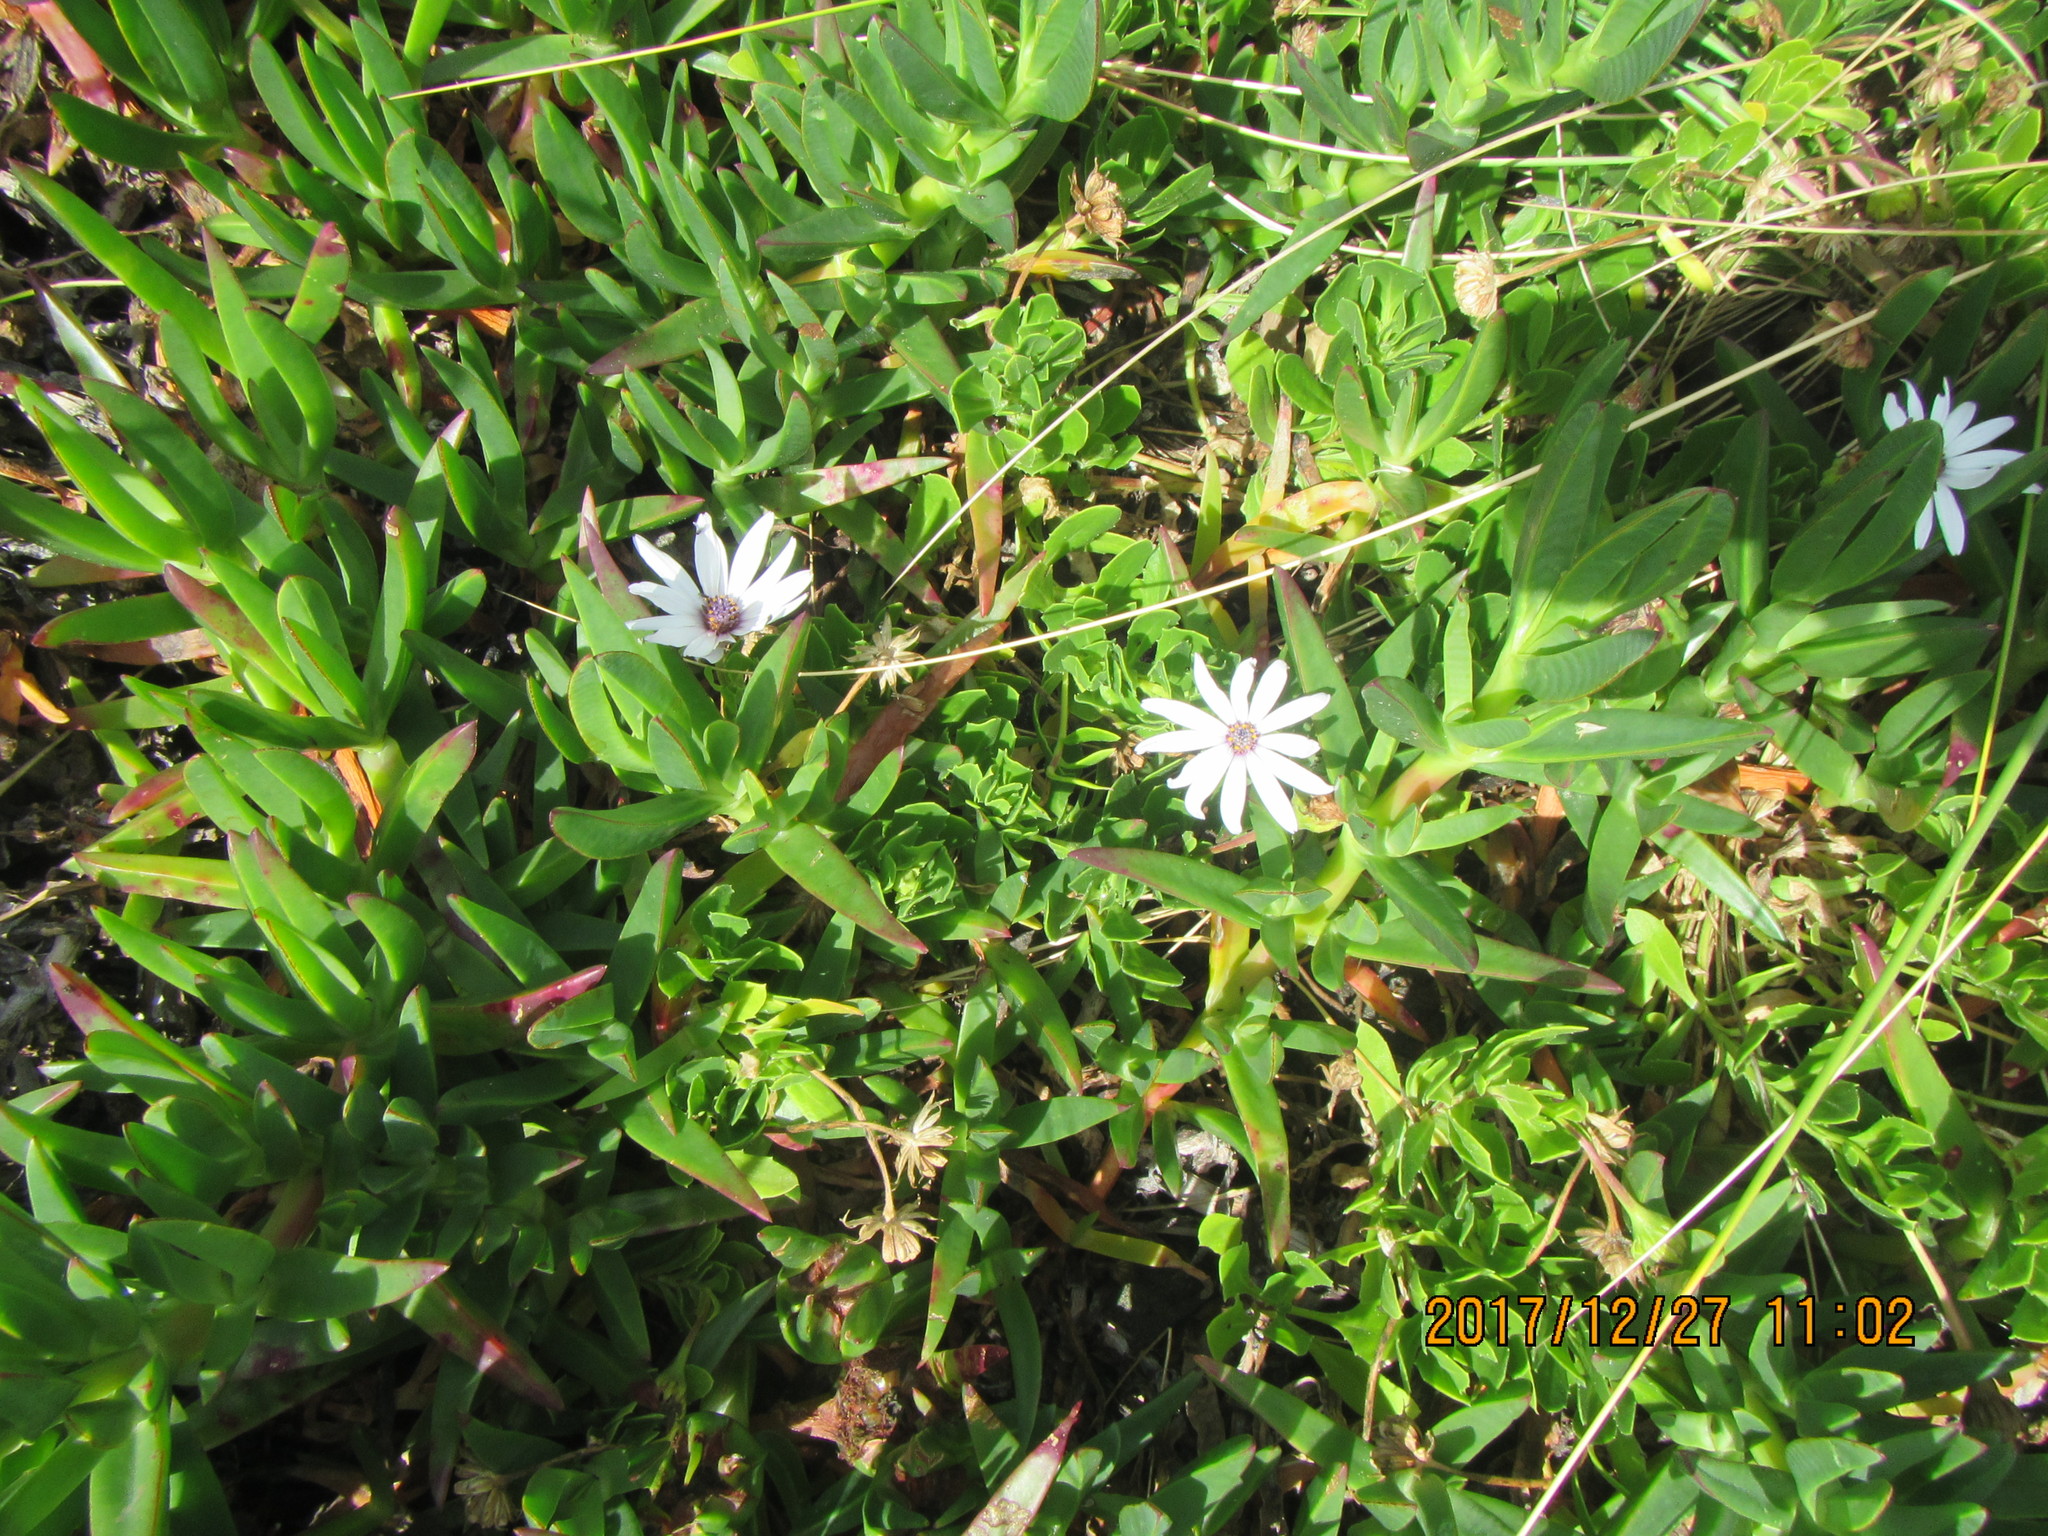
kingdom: Plantae
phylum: Tracheophyta
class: Magnoliopsida
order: Asterales
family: Asteraceae
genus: Dimorphotheca
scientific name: Dimorphotheca fruticosa
